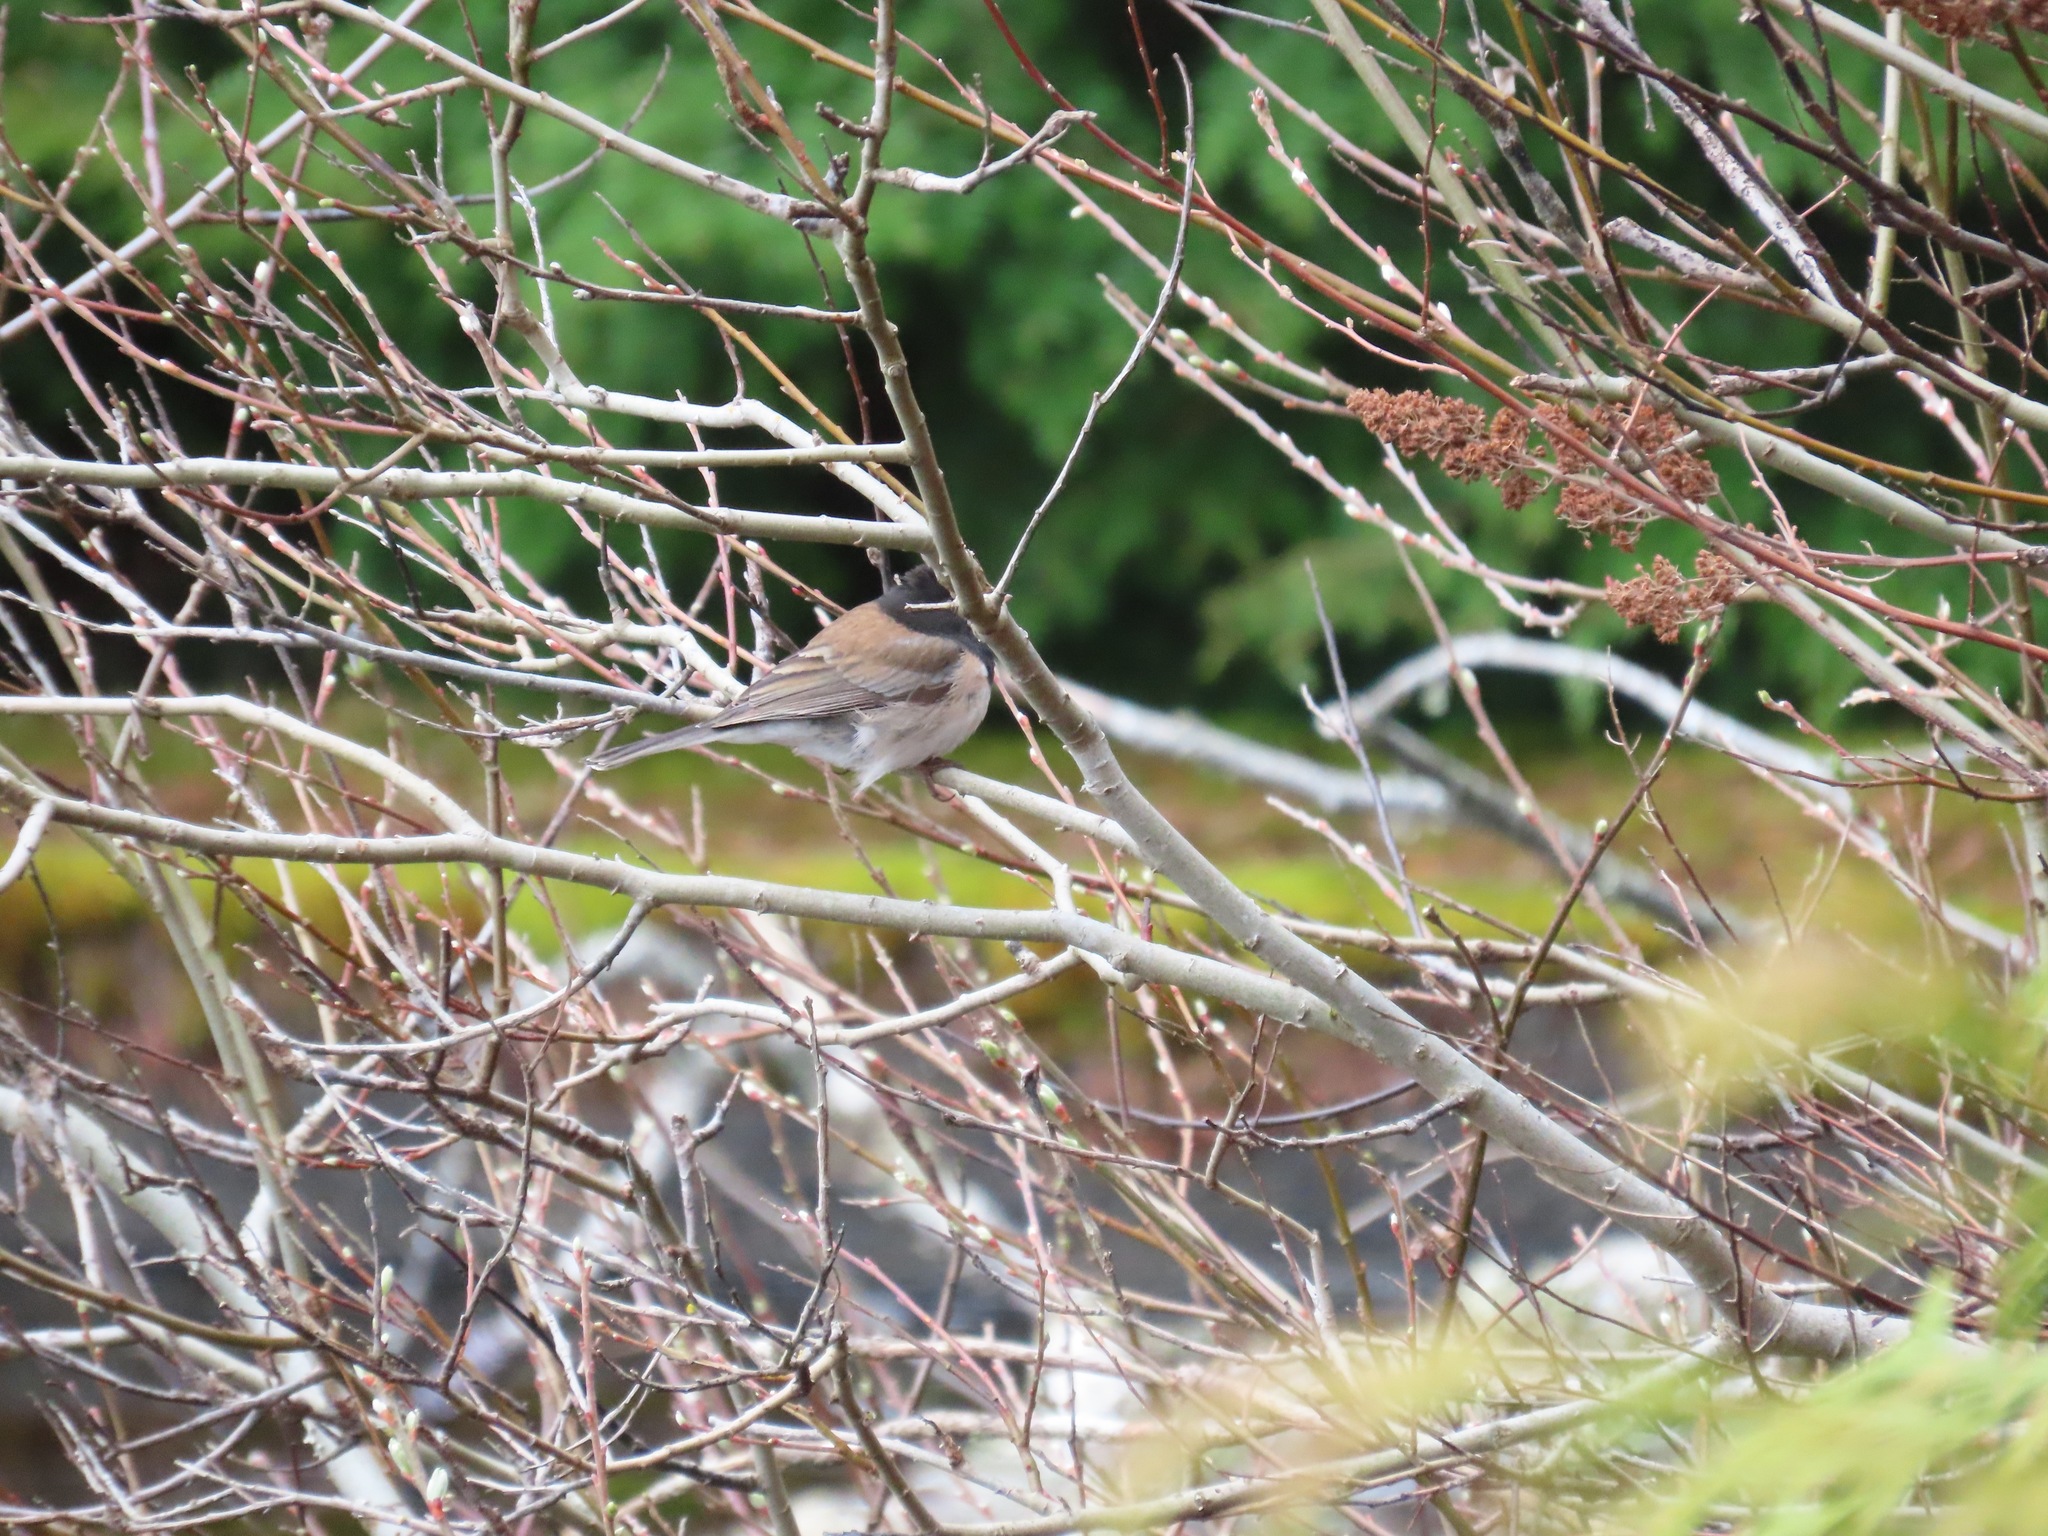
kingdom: Animalia
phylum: Chordata
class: Aves
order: Passeriformes
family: Passerellidae
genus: Junco
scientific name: Junco hyemalis
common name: Dark-eyed junco
